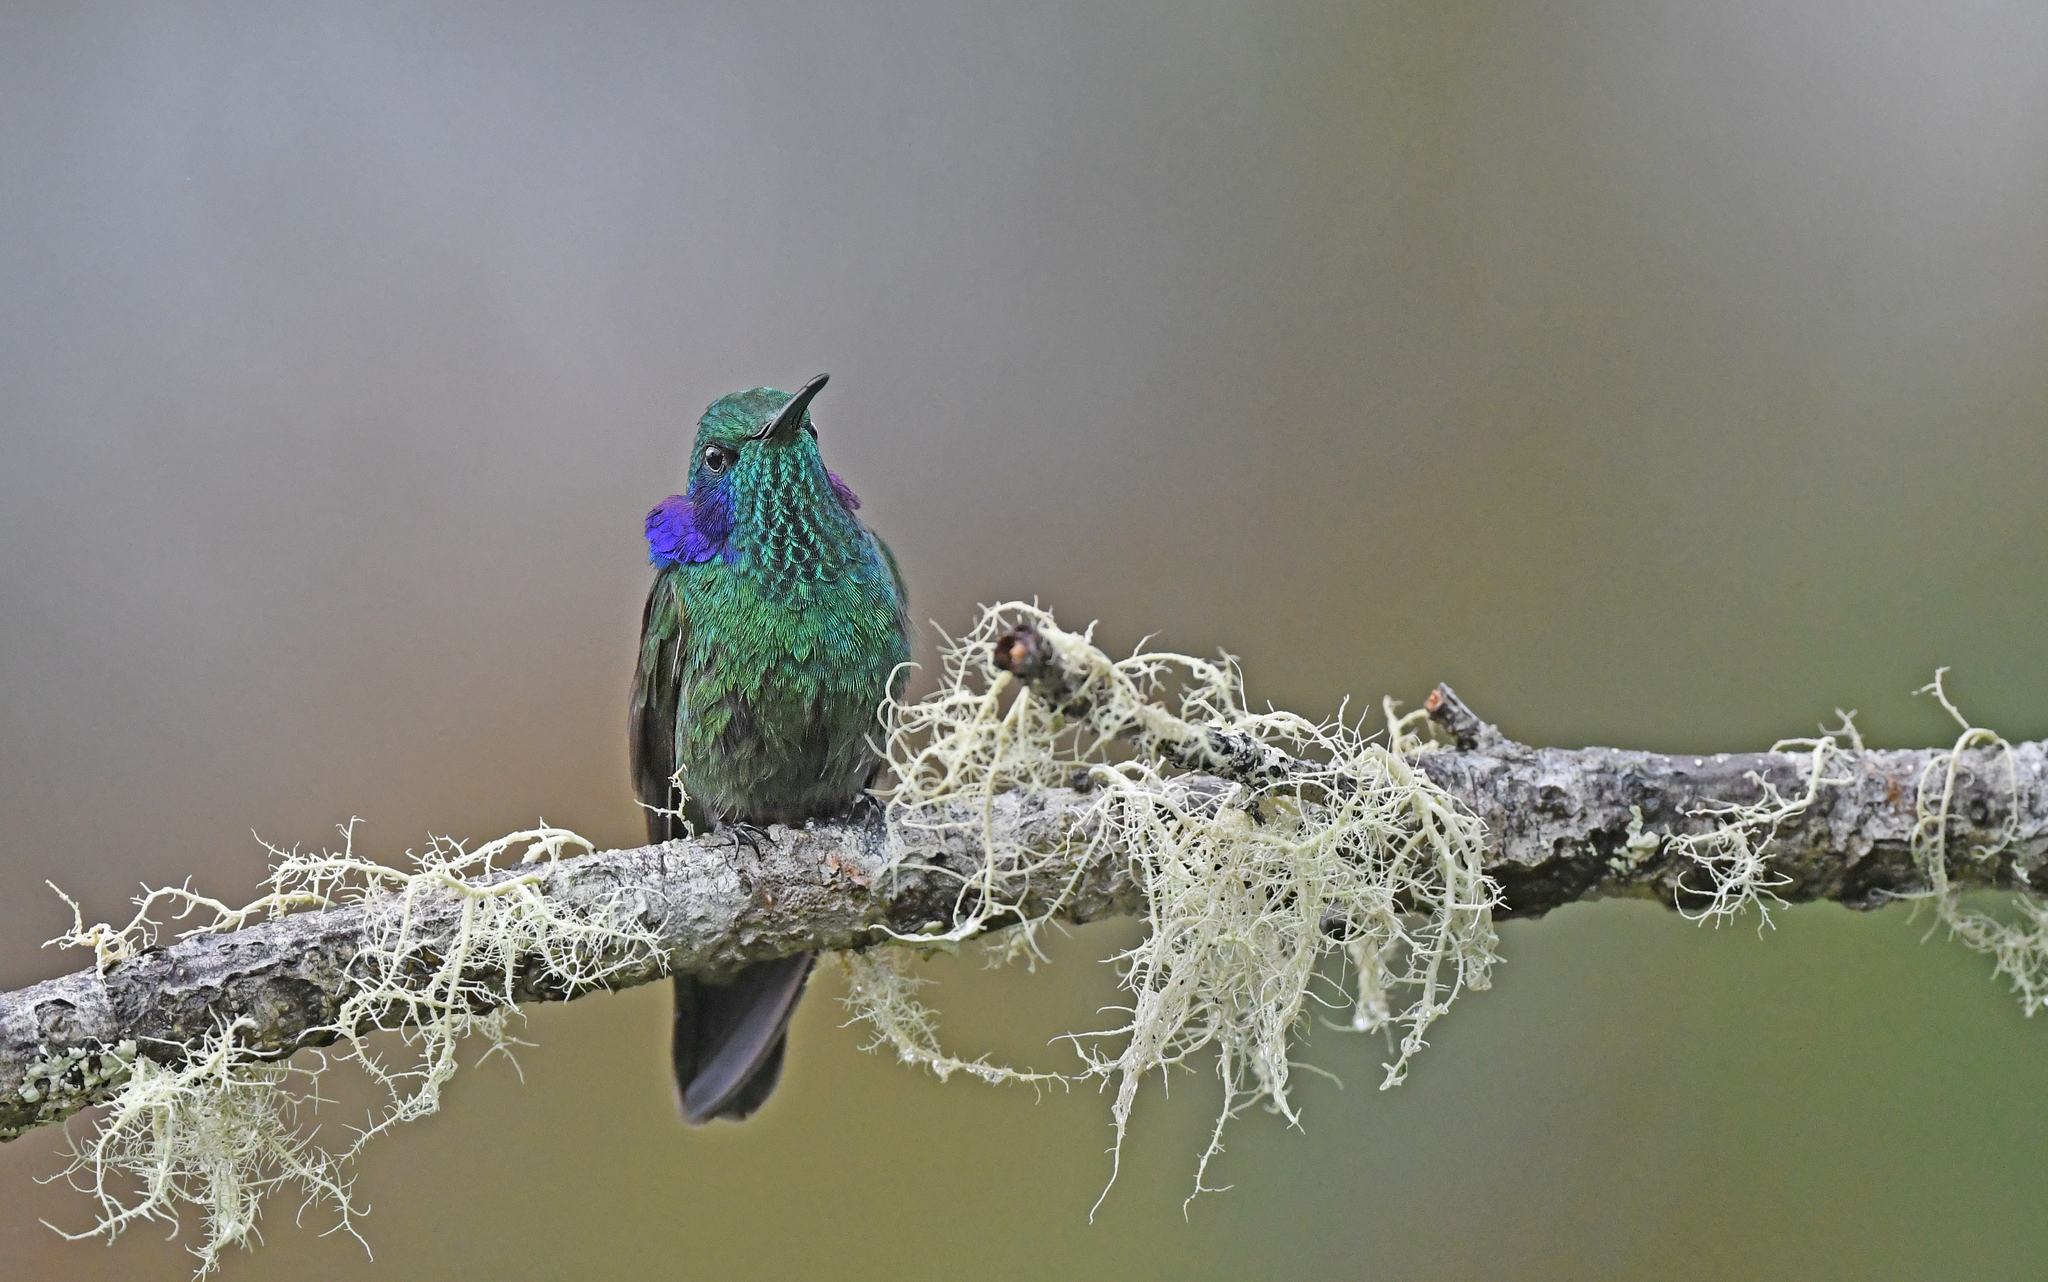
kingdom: Animalia
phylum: Chordata
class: Aves
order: Apodiformes
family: Trochilidae
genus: Colibri
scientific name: Colibri cyanotus
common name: Lesser violetear
